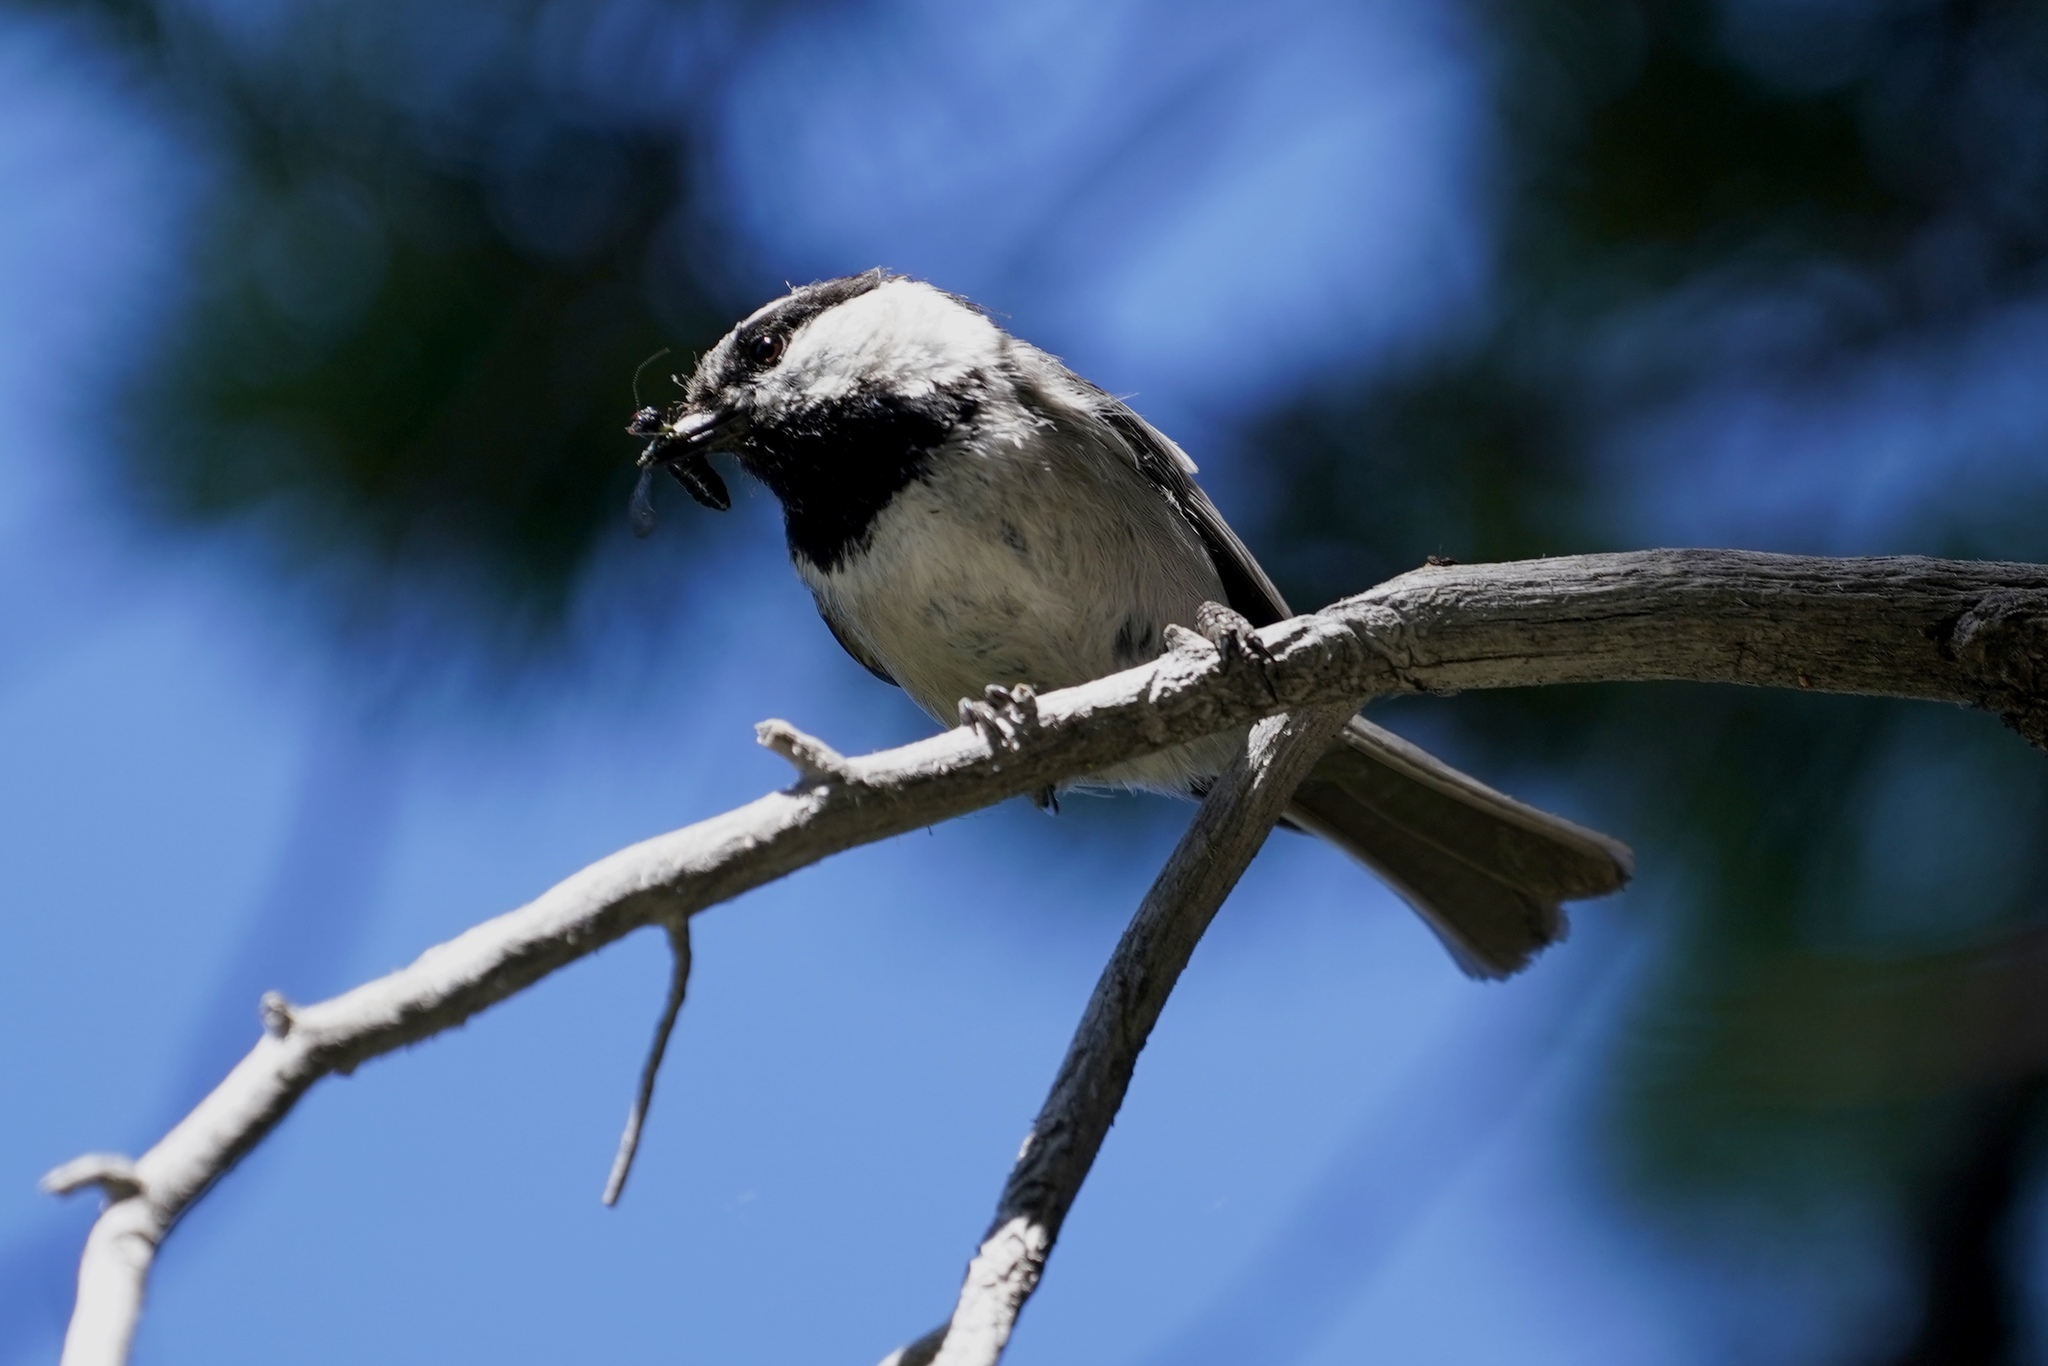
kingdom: Animalia
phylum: Chordata
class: Aves
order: Passeriformes
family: Paridae
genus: Poecile
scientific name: Poecile gambeli
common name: Mountain chickadee
